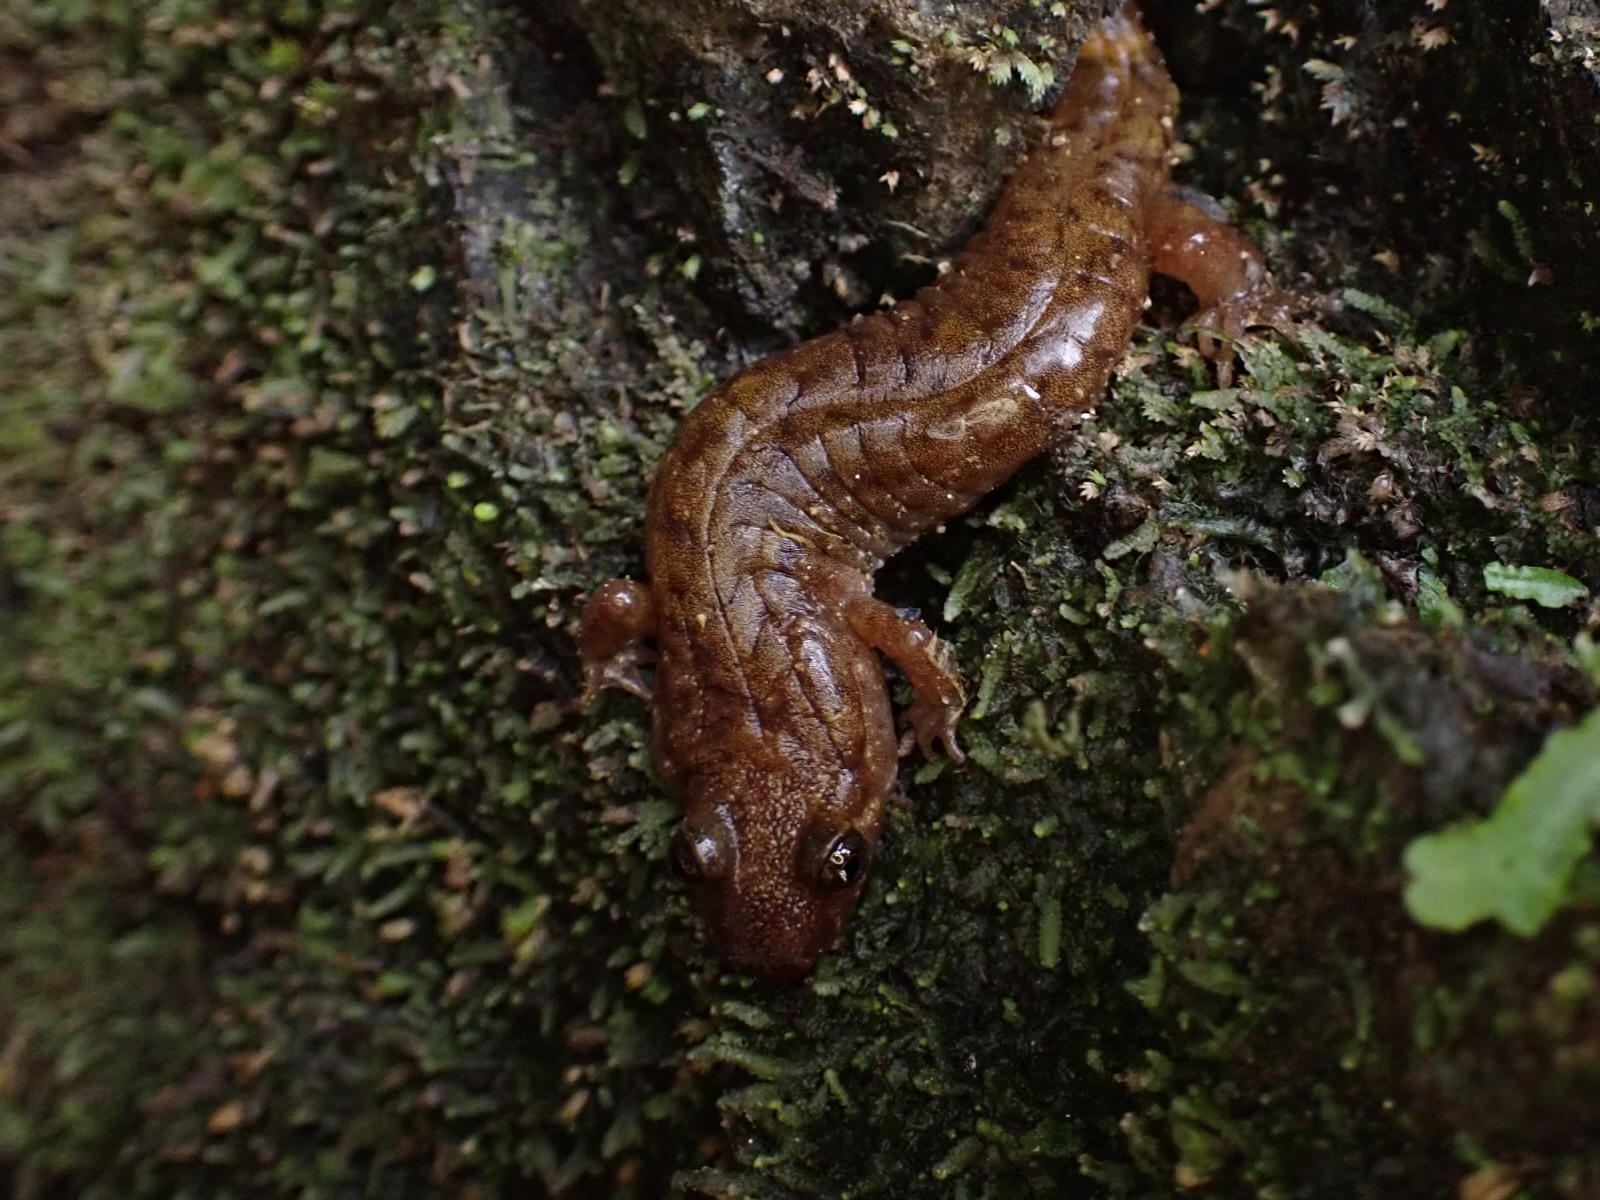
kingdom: Animalia
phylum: Chordata
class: Amphibia
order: Caudata
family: Plethodontidae
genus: Desmognathus
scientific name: Desmognathus monticola
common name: Seal salamander
